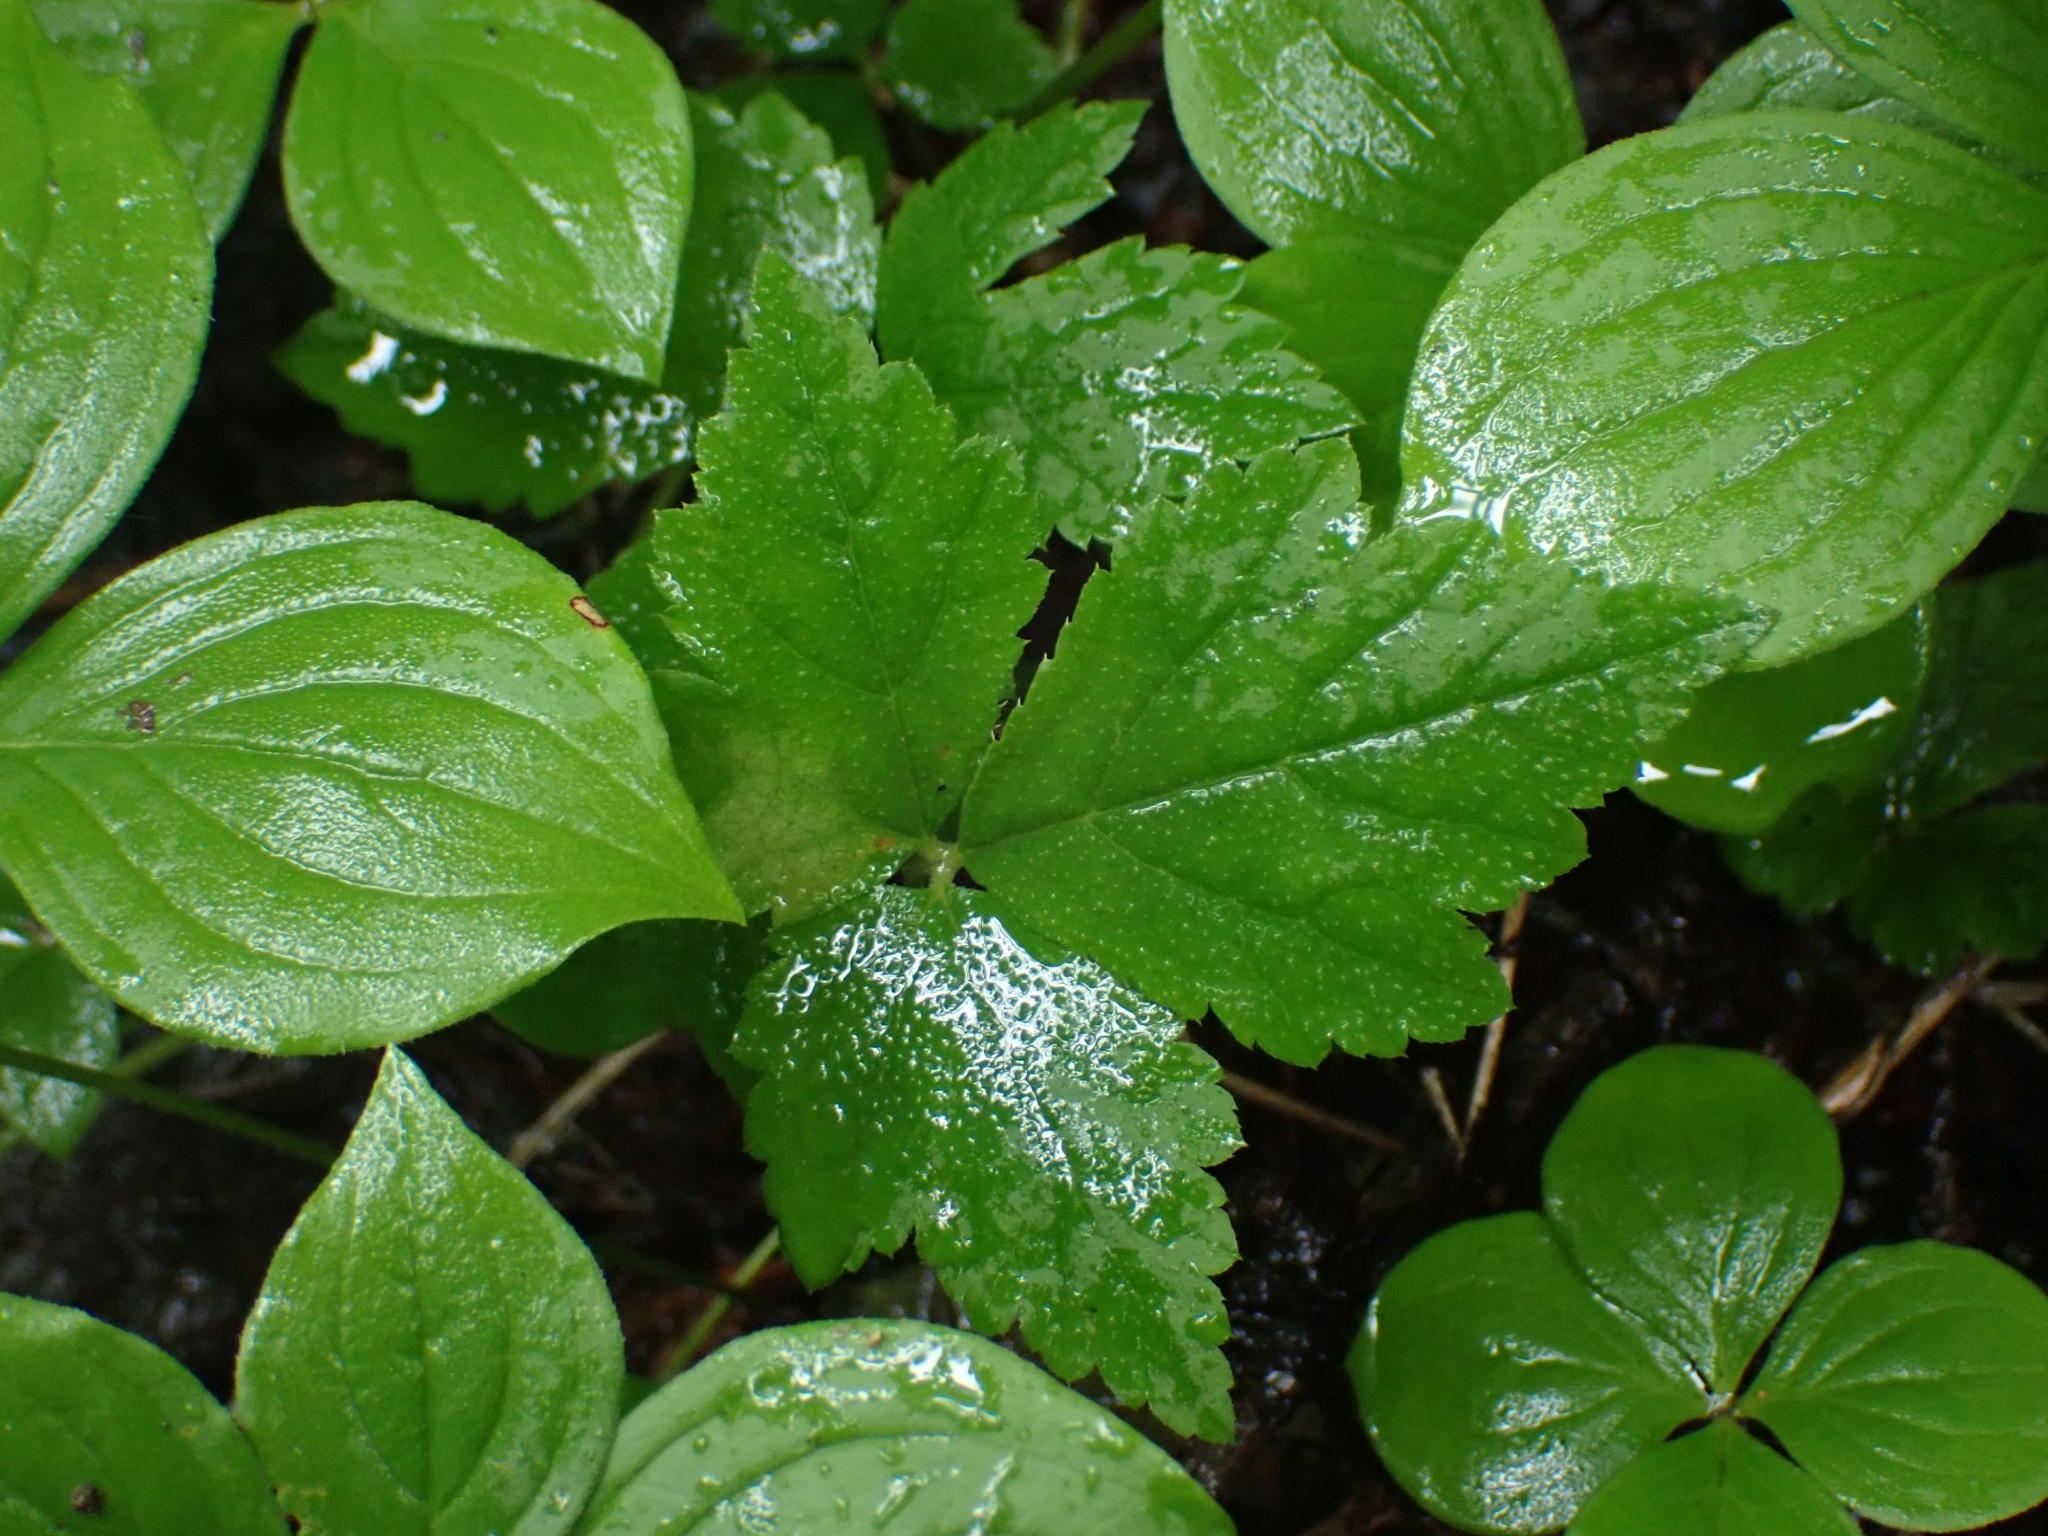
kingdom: Plantae
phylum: Tracheophyta
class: Magnoliopsida
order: Saxifragales
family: Saxifragaceae
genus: Tiarella
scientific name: Tiarella trifoliata
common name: Sugar-scoop
